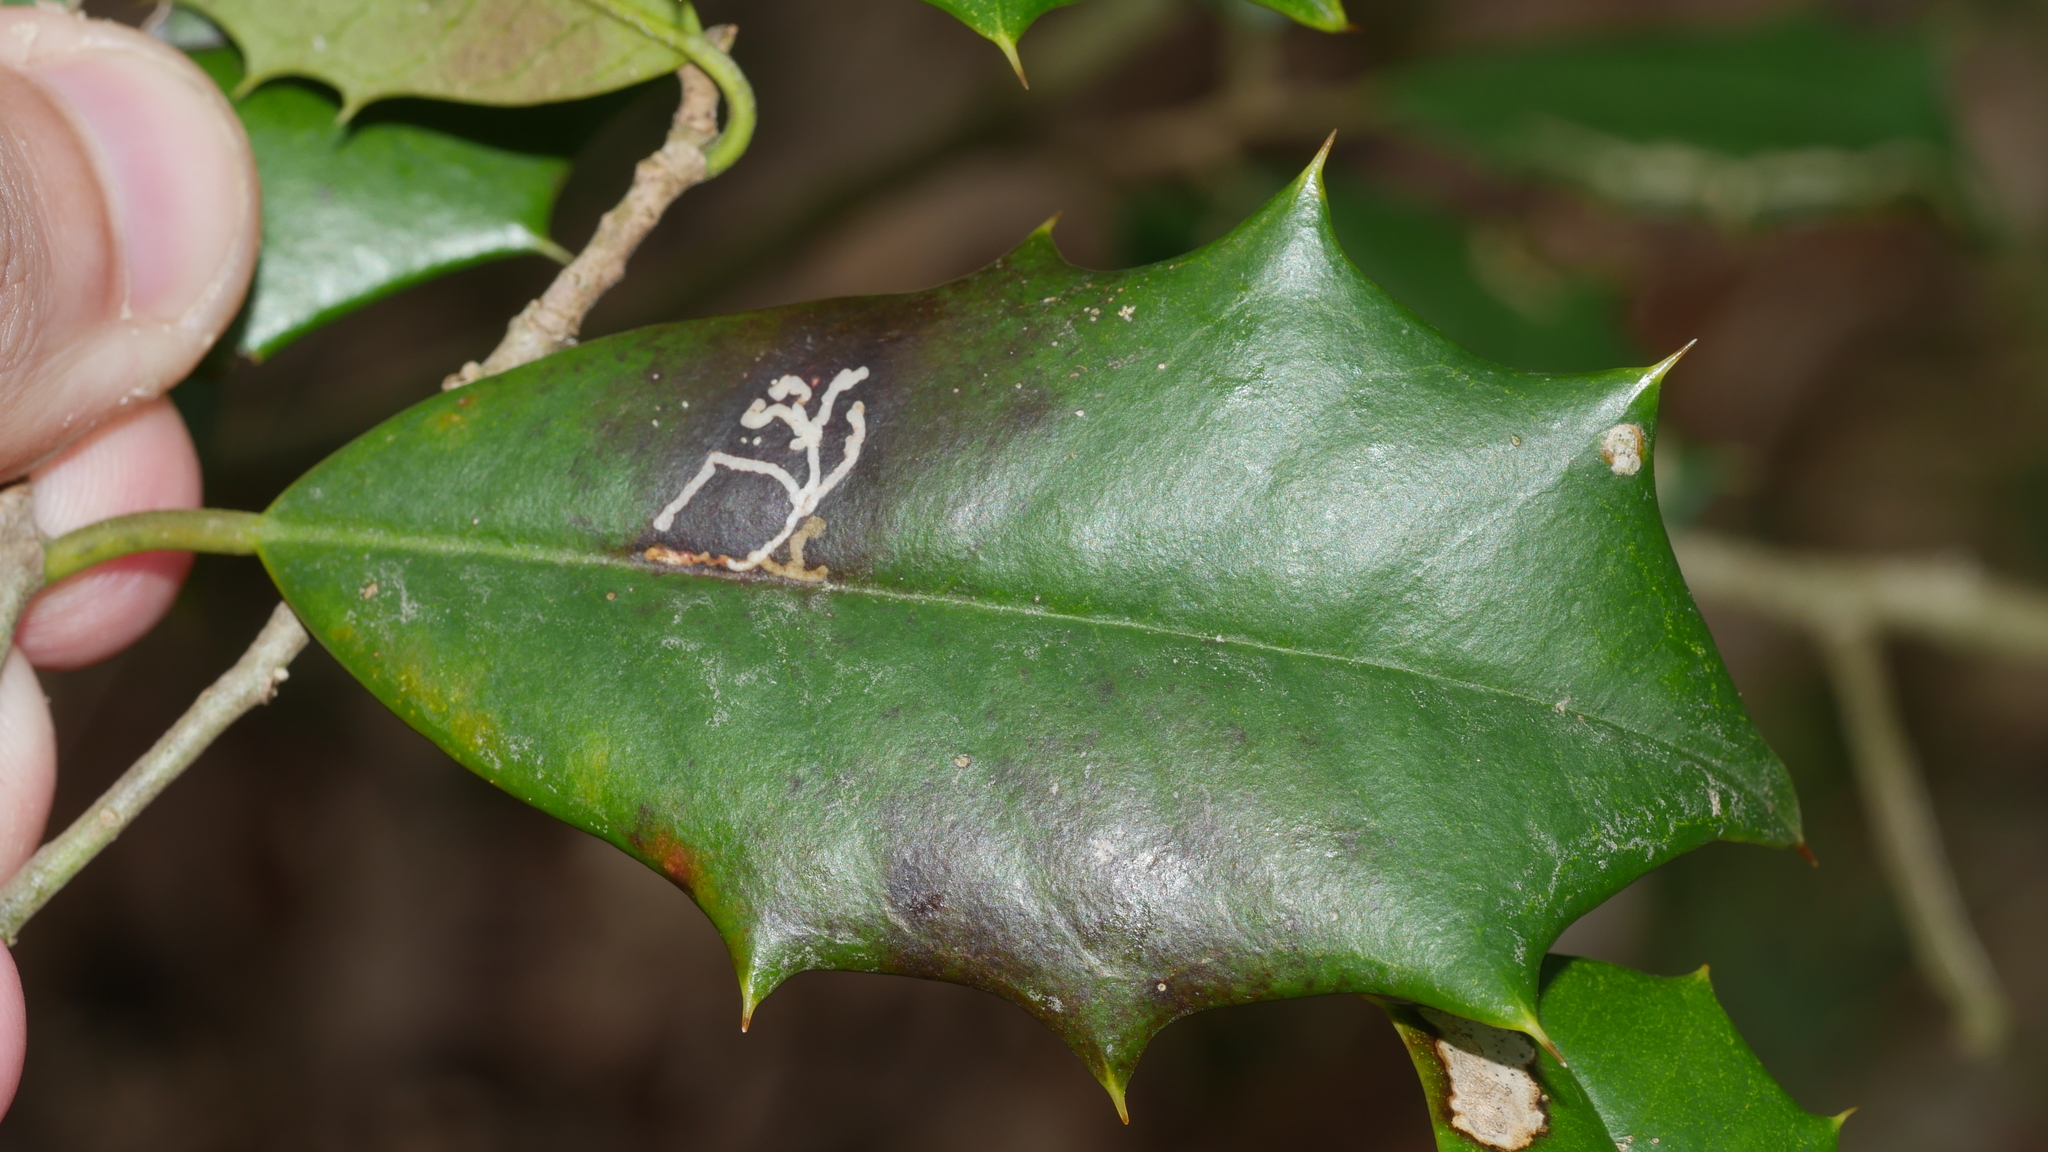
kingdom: Animalia
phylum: Arthropoda
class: Insecta
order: Lepidoptera
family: Tortricidae
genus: Rhopobota
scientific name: Rhopobota
